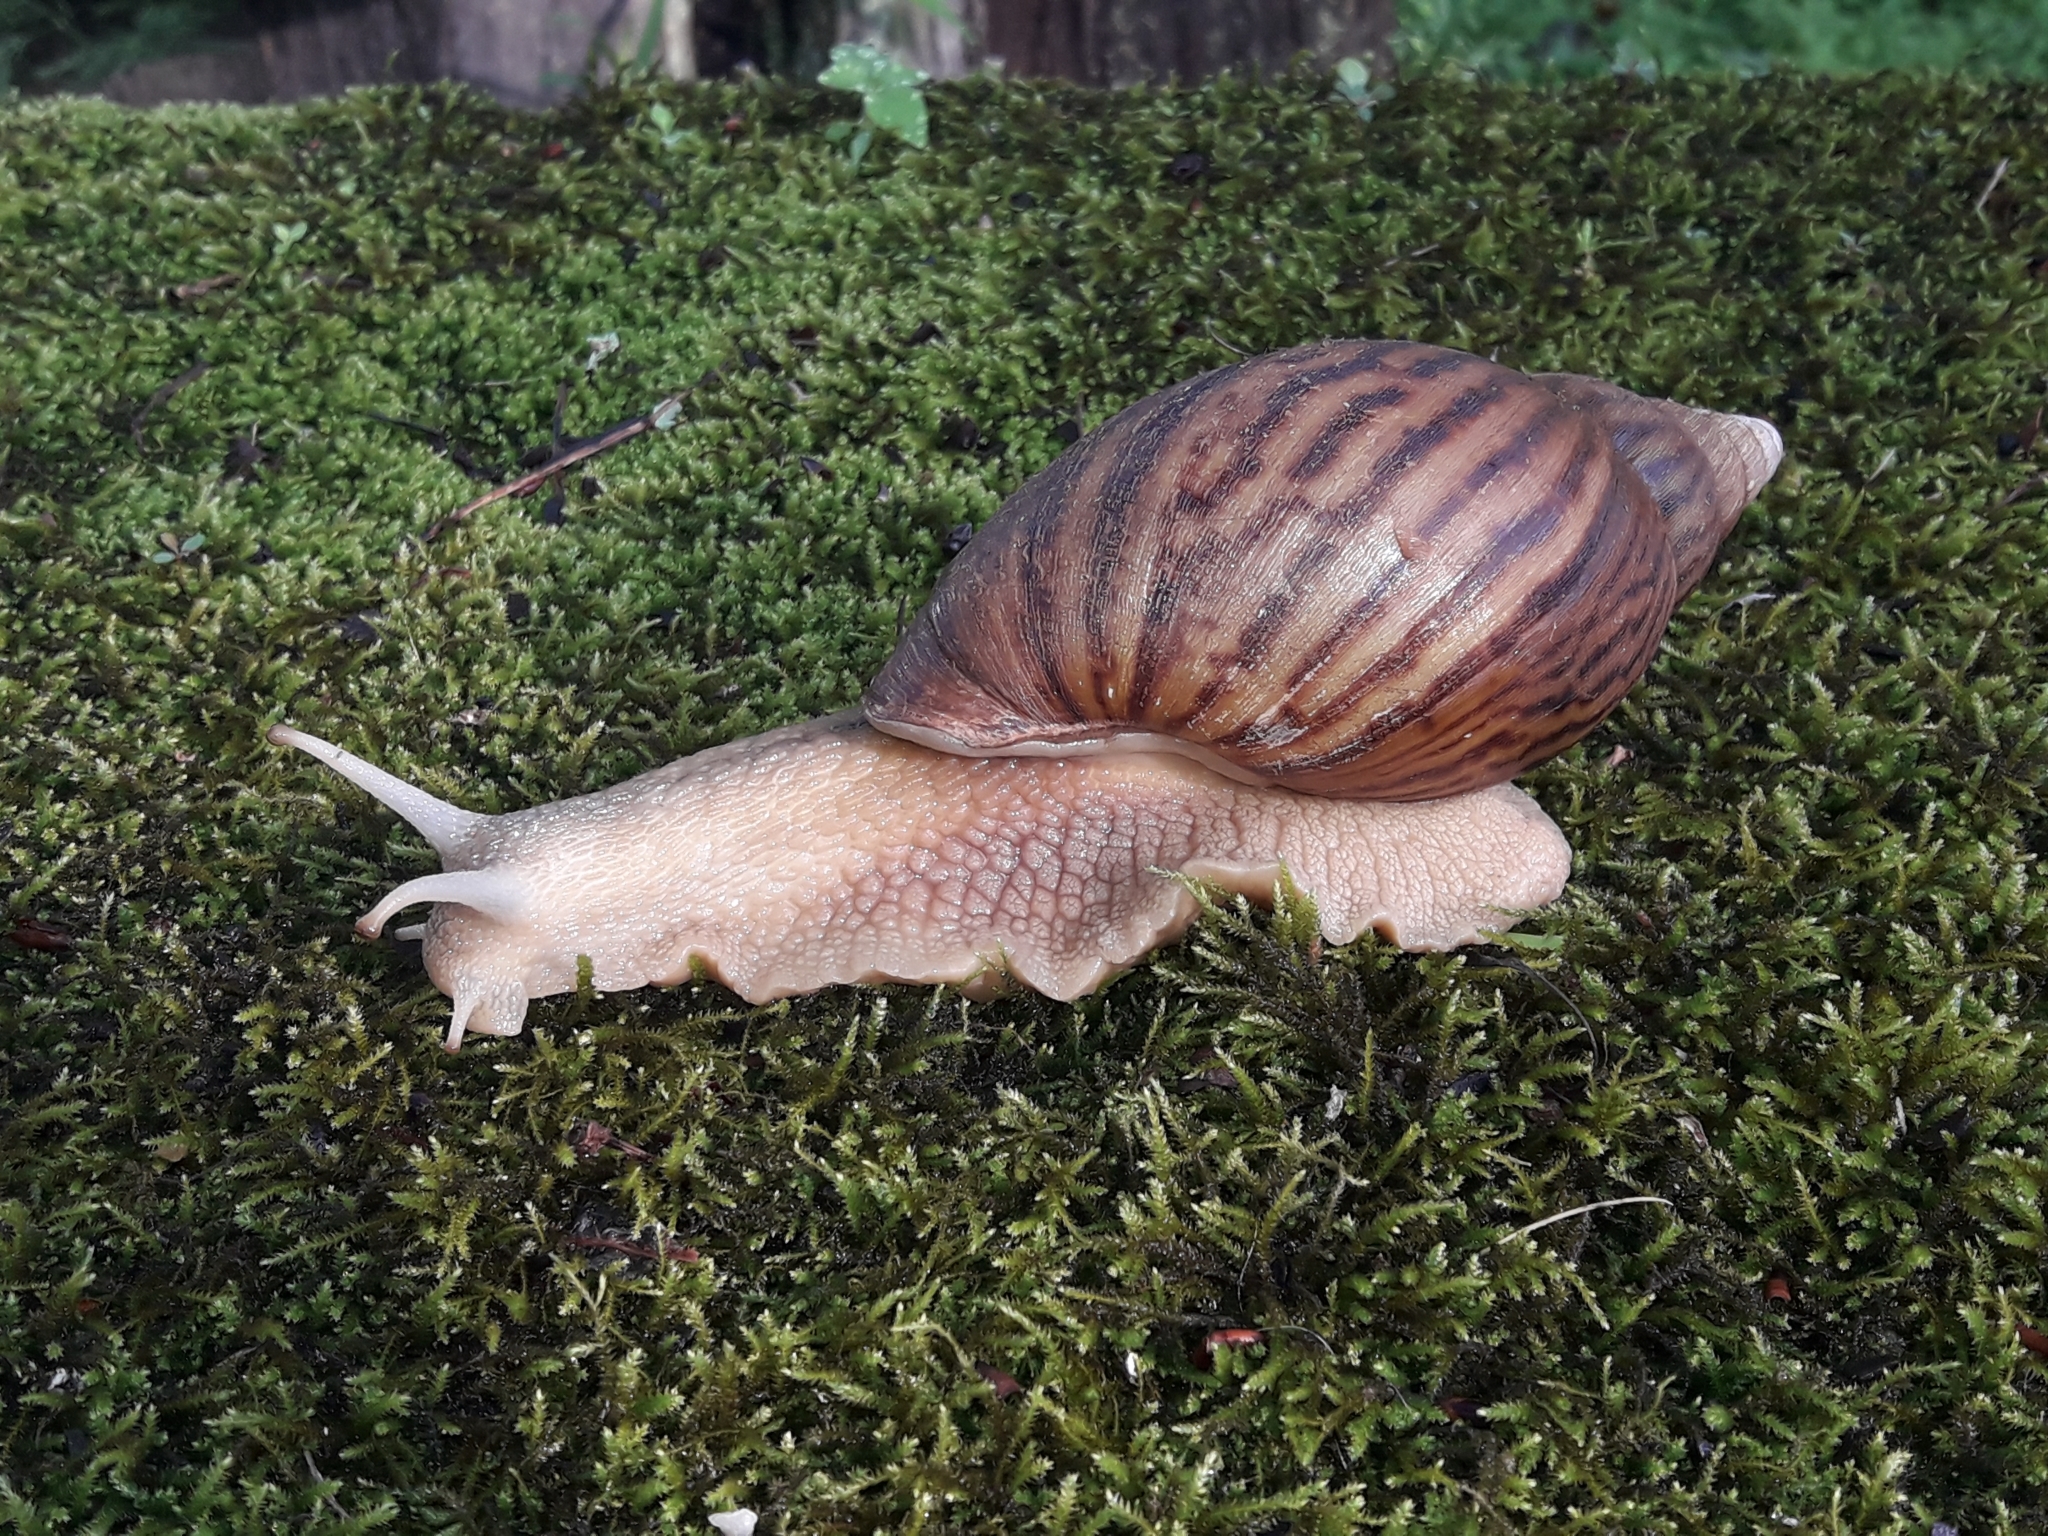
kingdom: Animalia
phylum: Mollusca
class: Gastropoda
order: Stylommatophora
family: Achatinidae
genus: Cochlitoma
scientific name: Cochlitoma granulata
